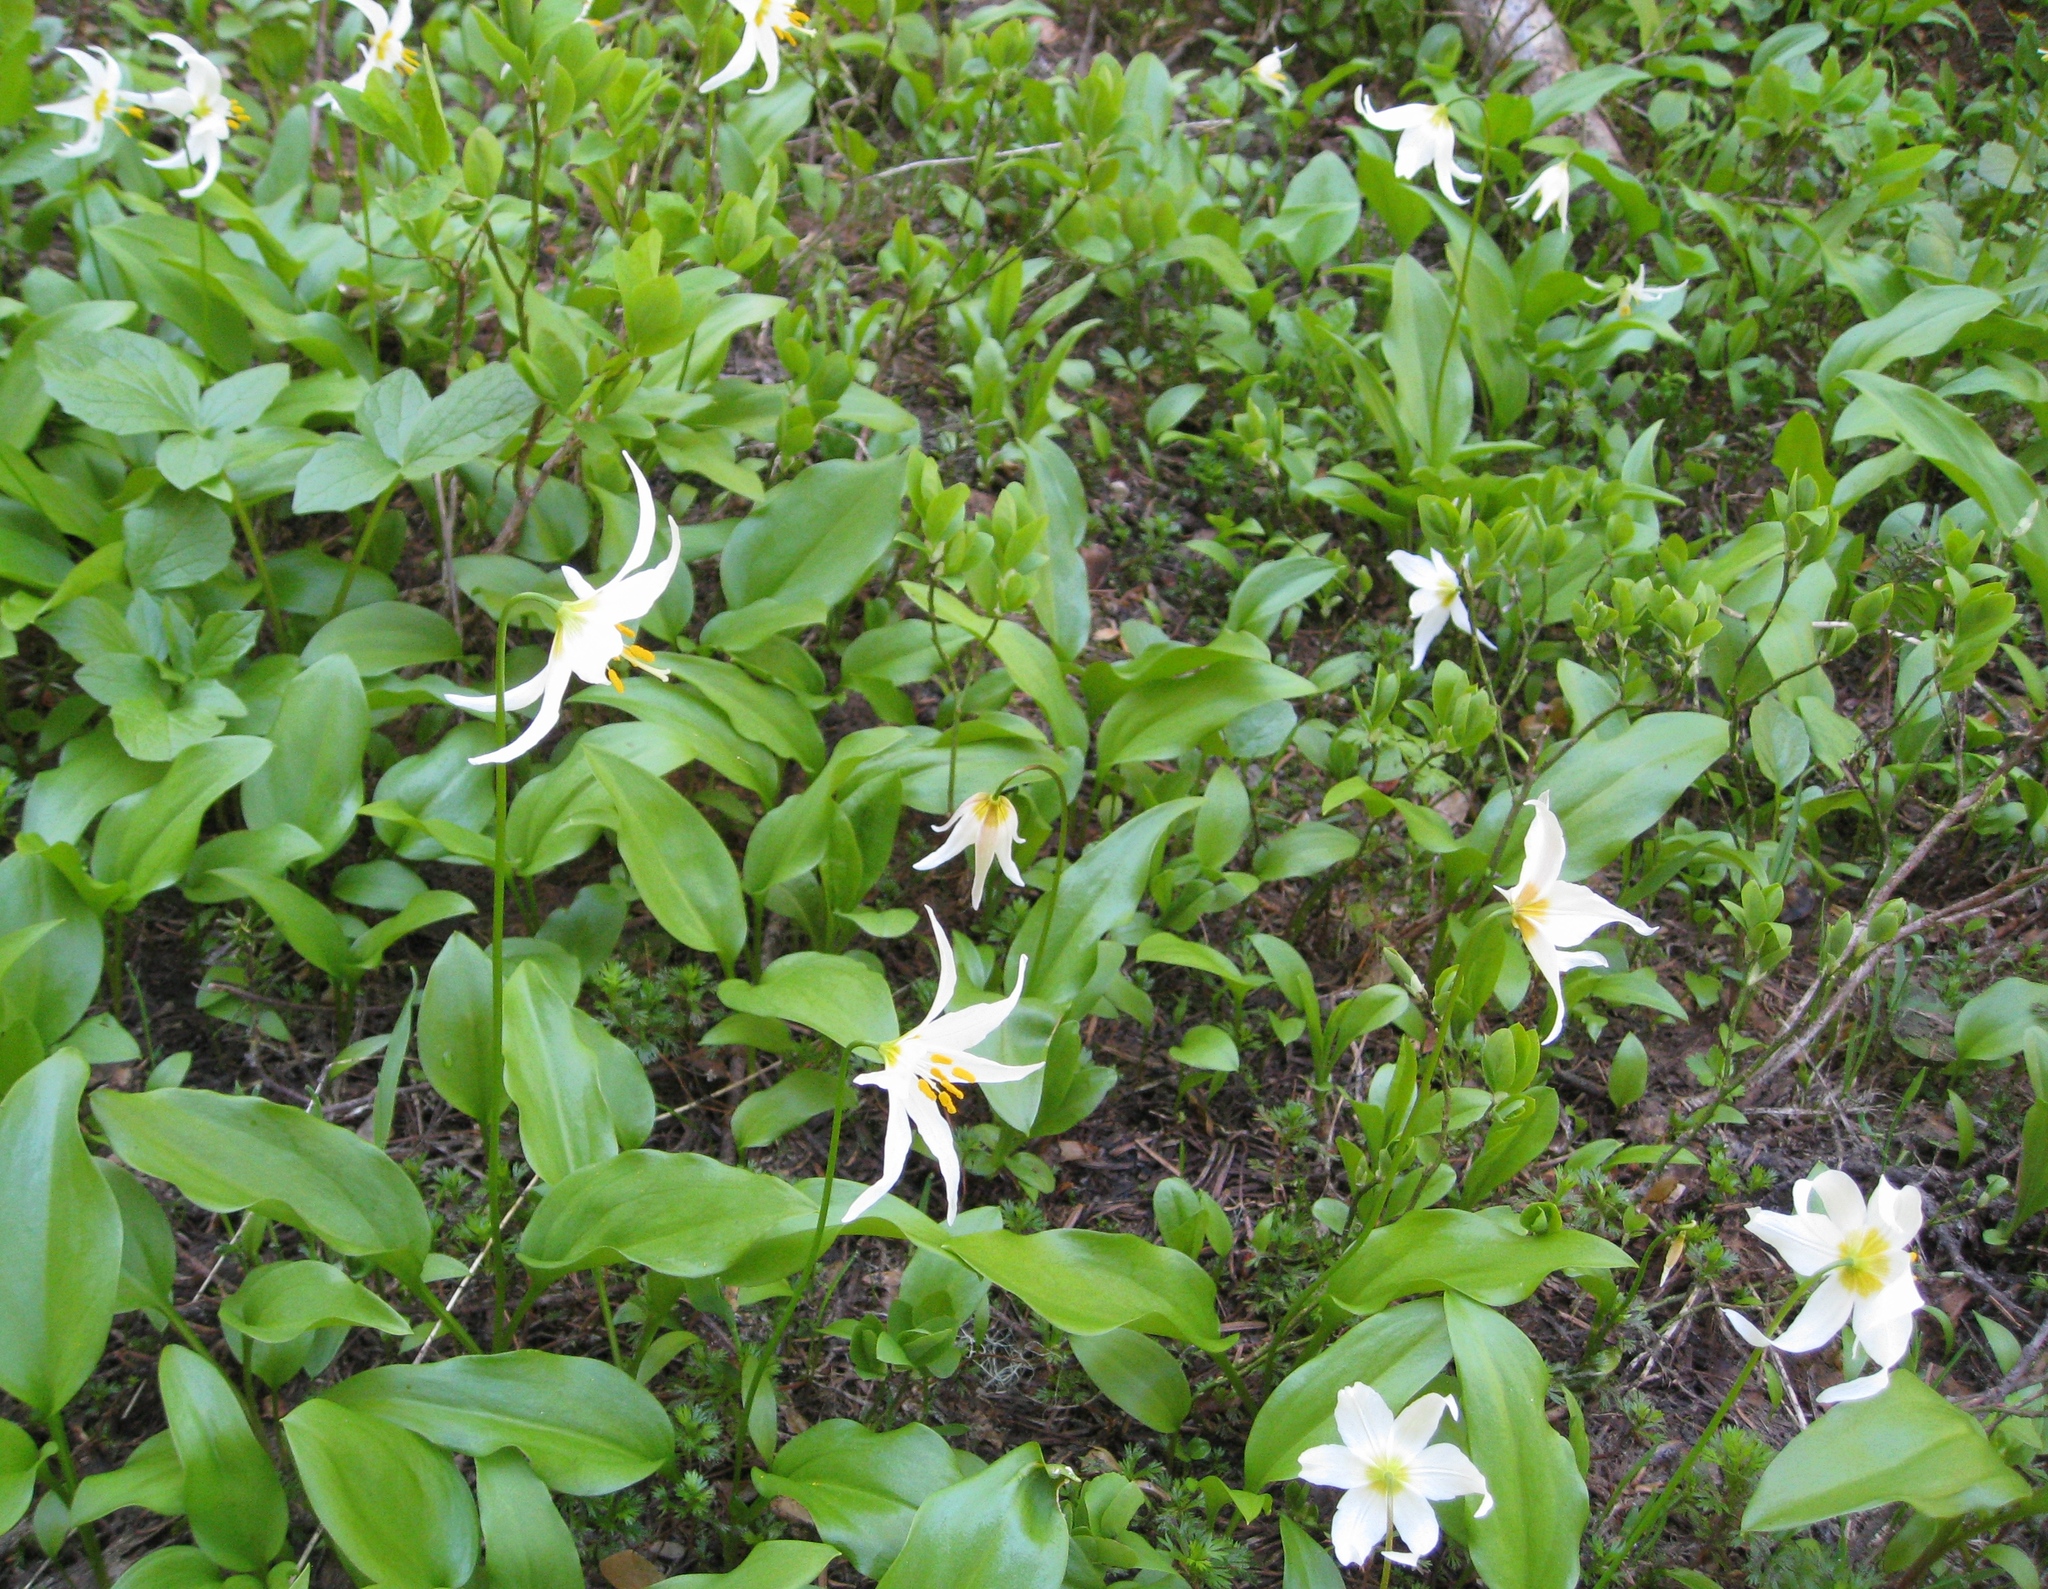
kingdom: Plantae
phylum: Tracheophyta
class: Liliopsida
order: Liliales
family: Liliaceae
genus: Erythronium
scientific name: Erythronium montanum
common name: Avalanche lily
